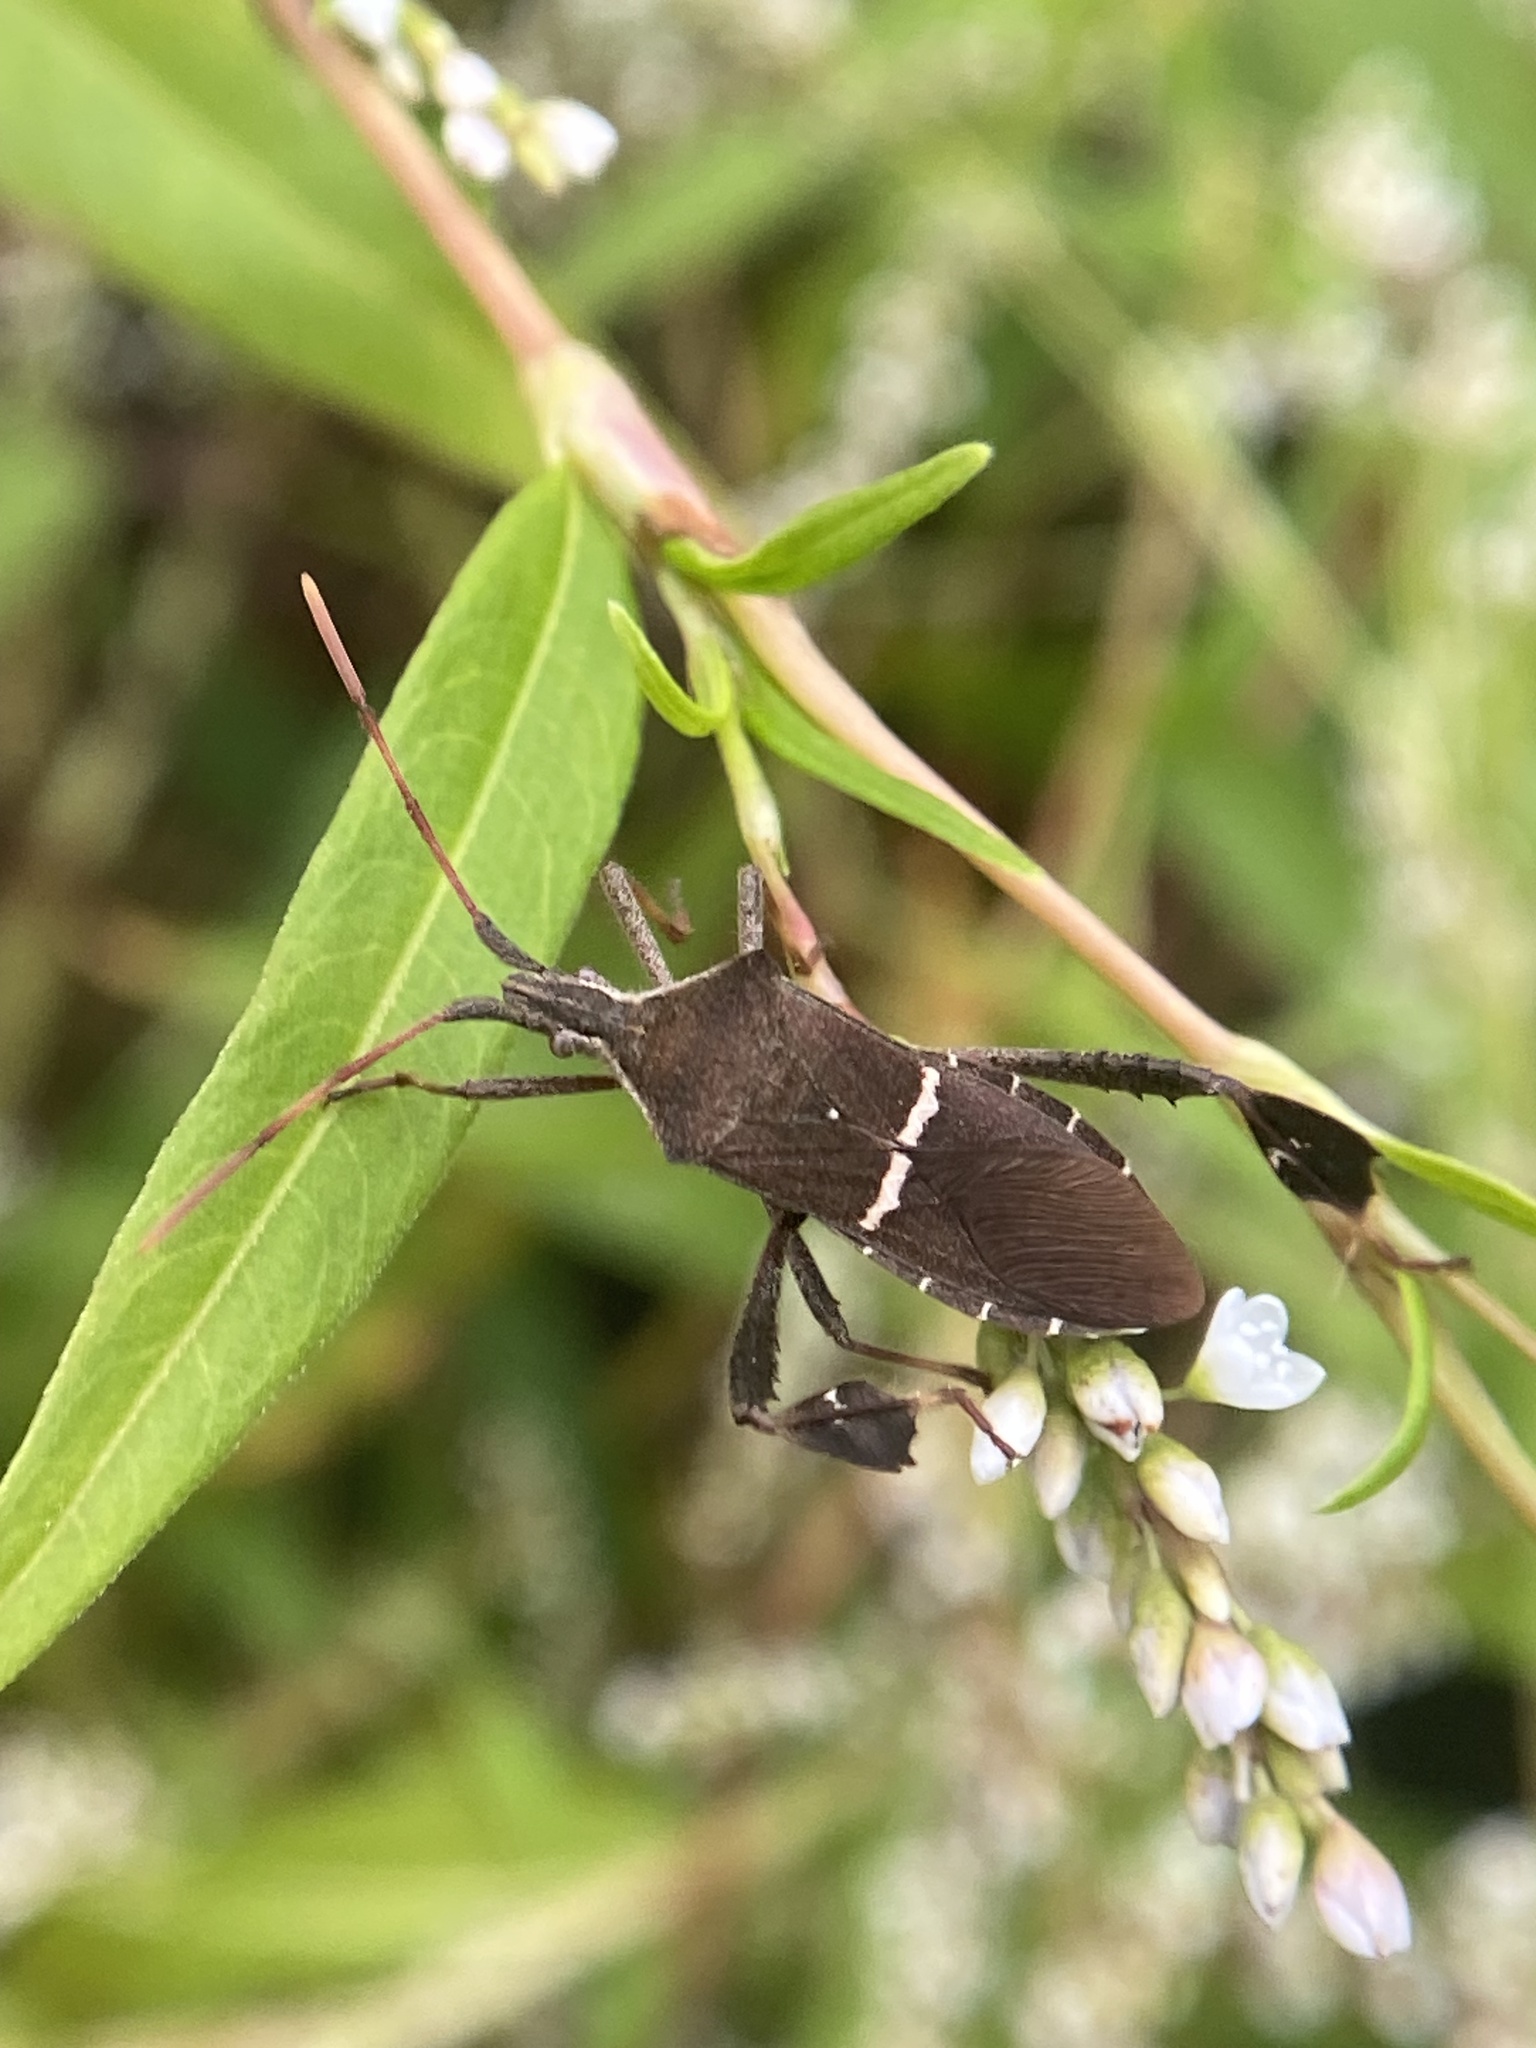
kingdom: Animalia
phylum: Arthropoda
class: Insecta
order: Hemiptera
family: Coreidae
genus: Leptoglossus
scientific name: Leptoglossus phyllopus
